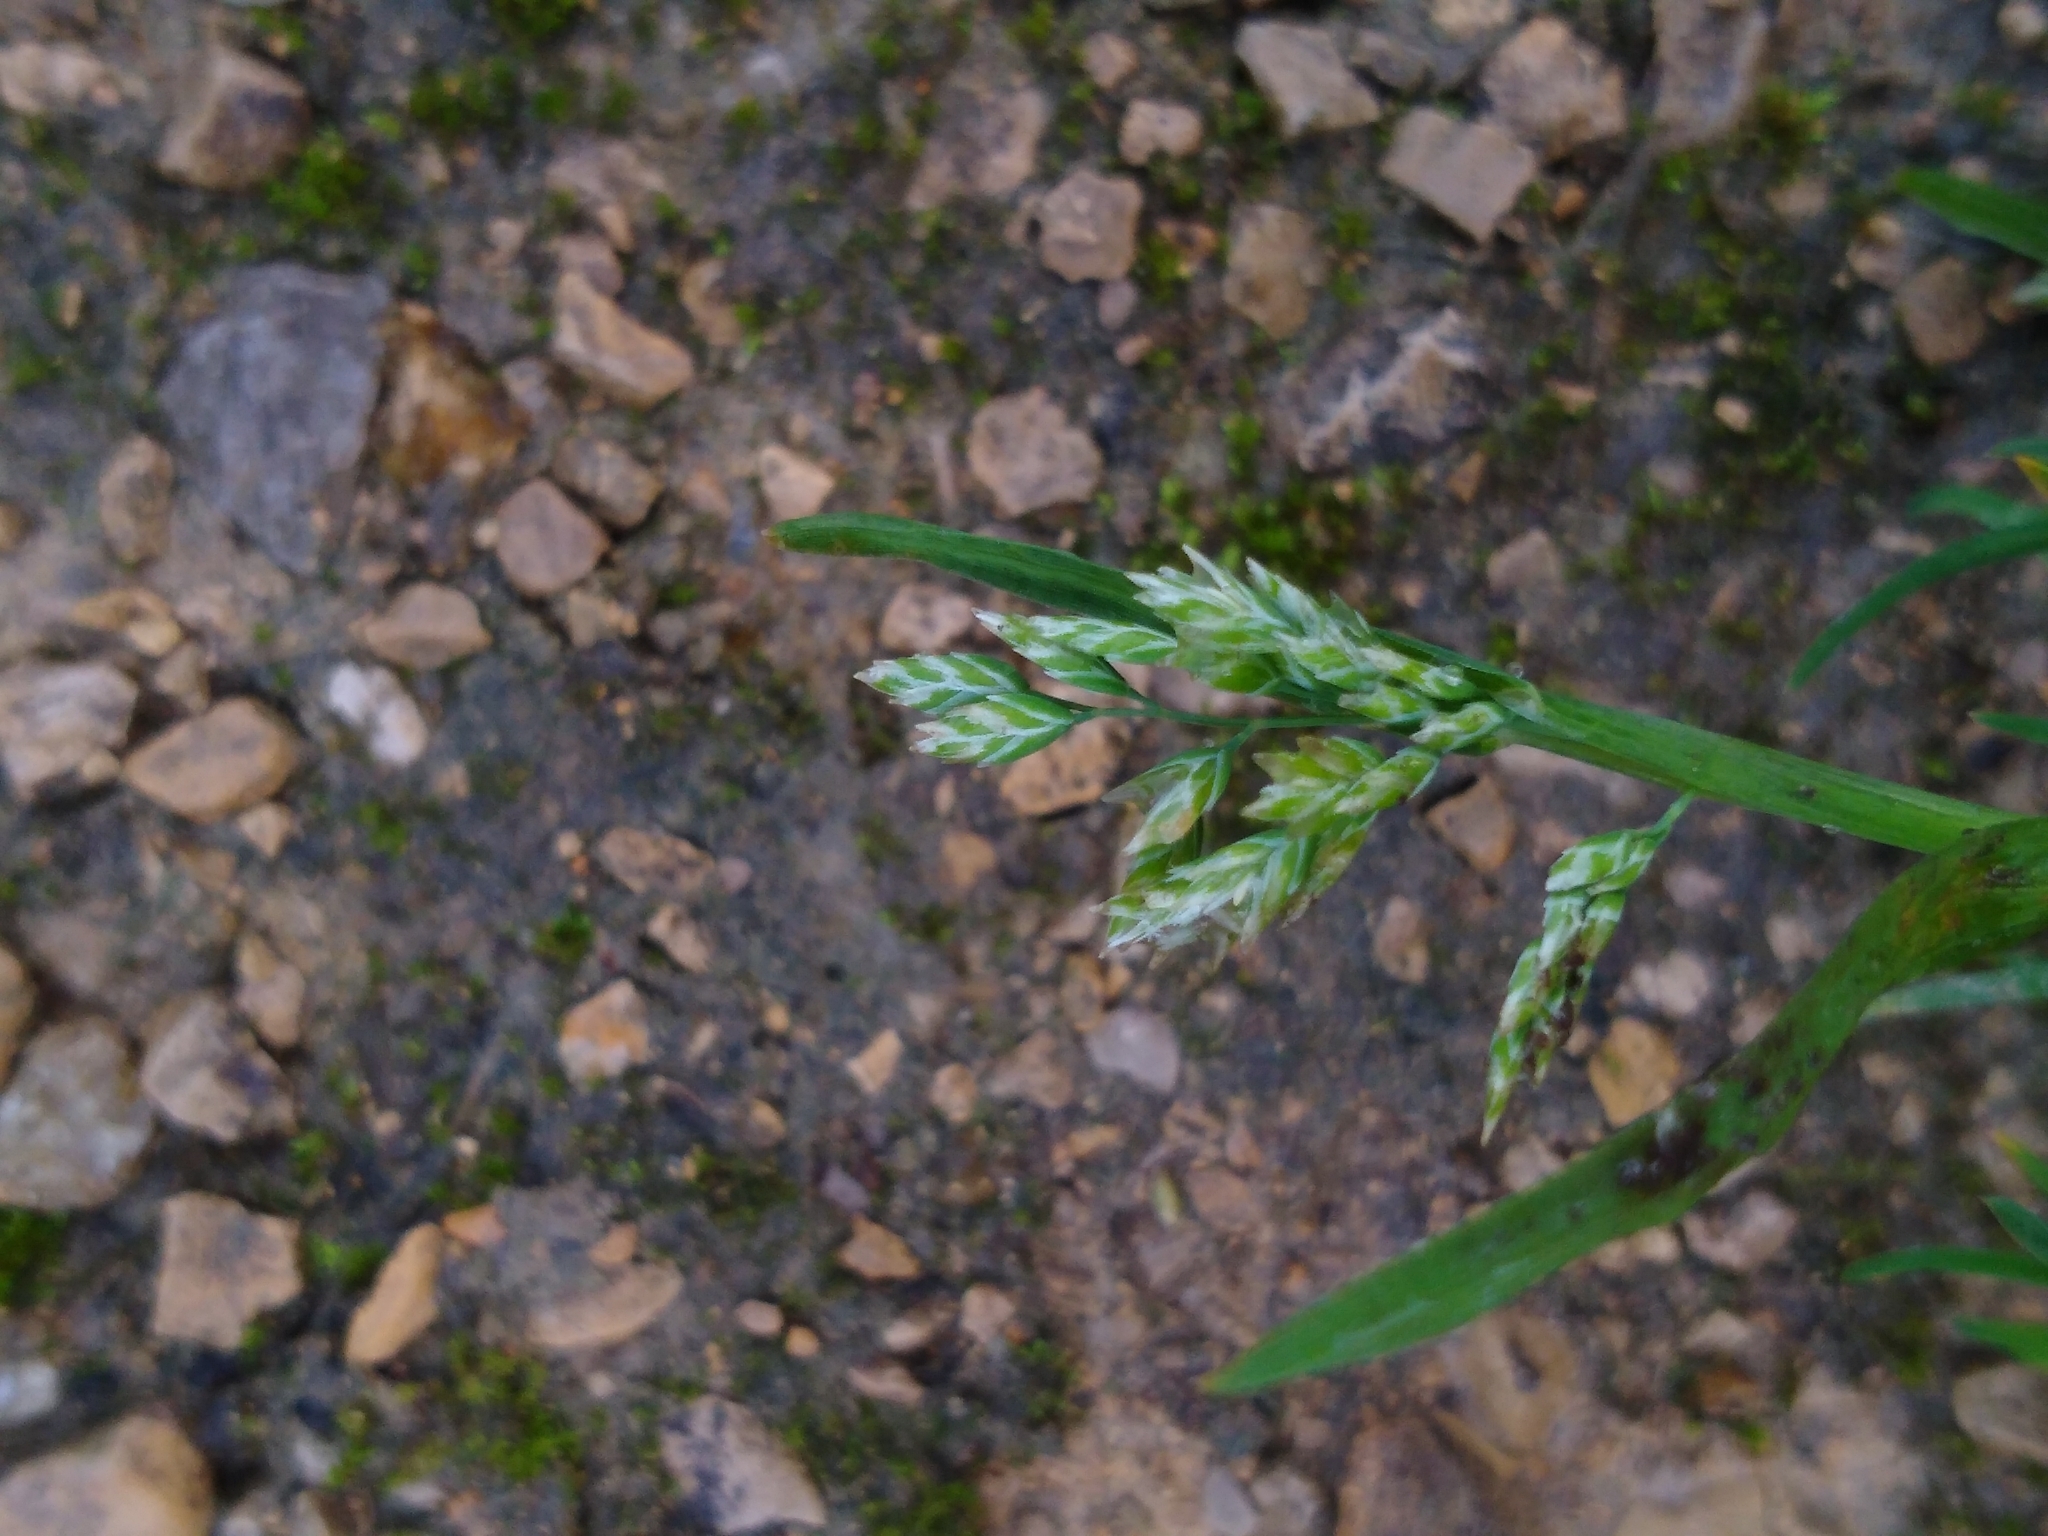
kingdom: Plantae
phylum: Tracheophyta
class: Liliopsida
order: Poales
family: Poaceae
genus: Poa
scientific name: Poa annua
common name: Annual bluegrass
